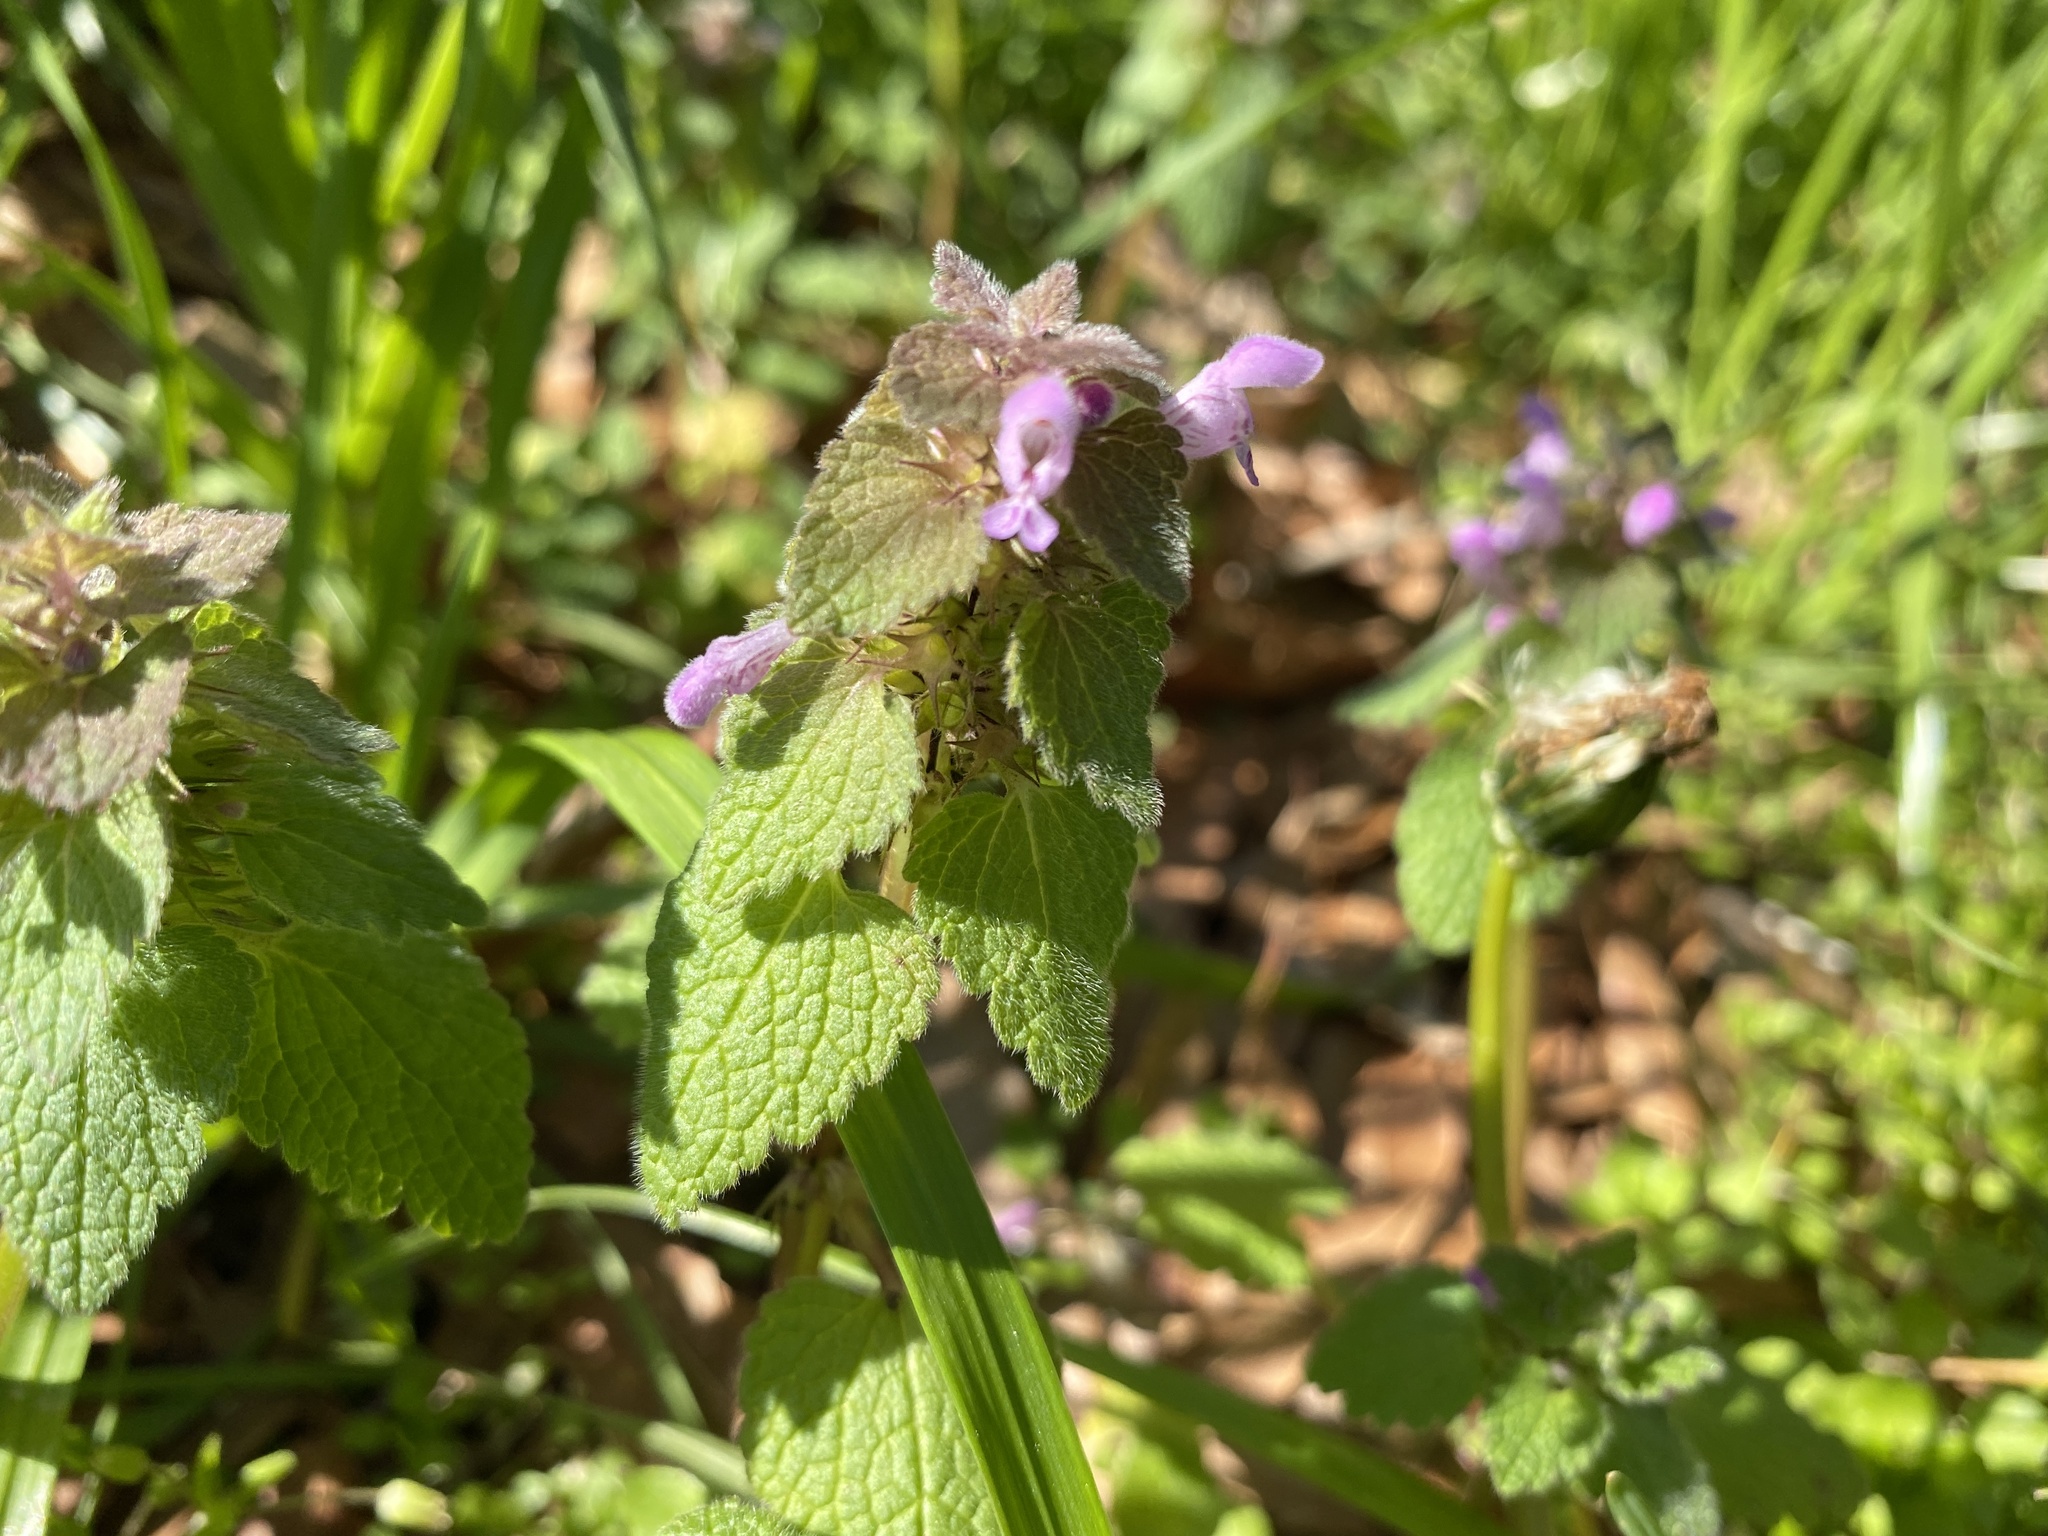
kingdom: Plantae
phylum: Tracheophyta
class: Magnoliopsida
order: Lamiales
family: Lamiaceae
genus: Lamium
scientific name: Lamium purpureum
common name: Red dead-nettle
